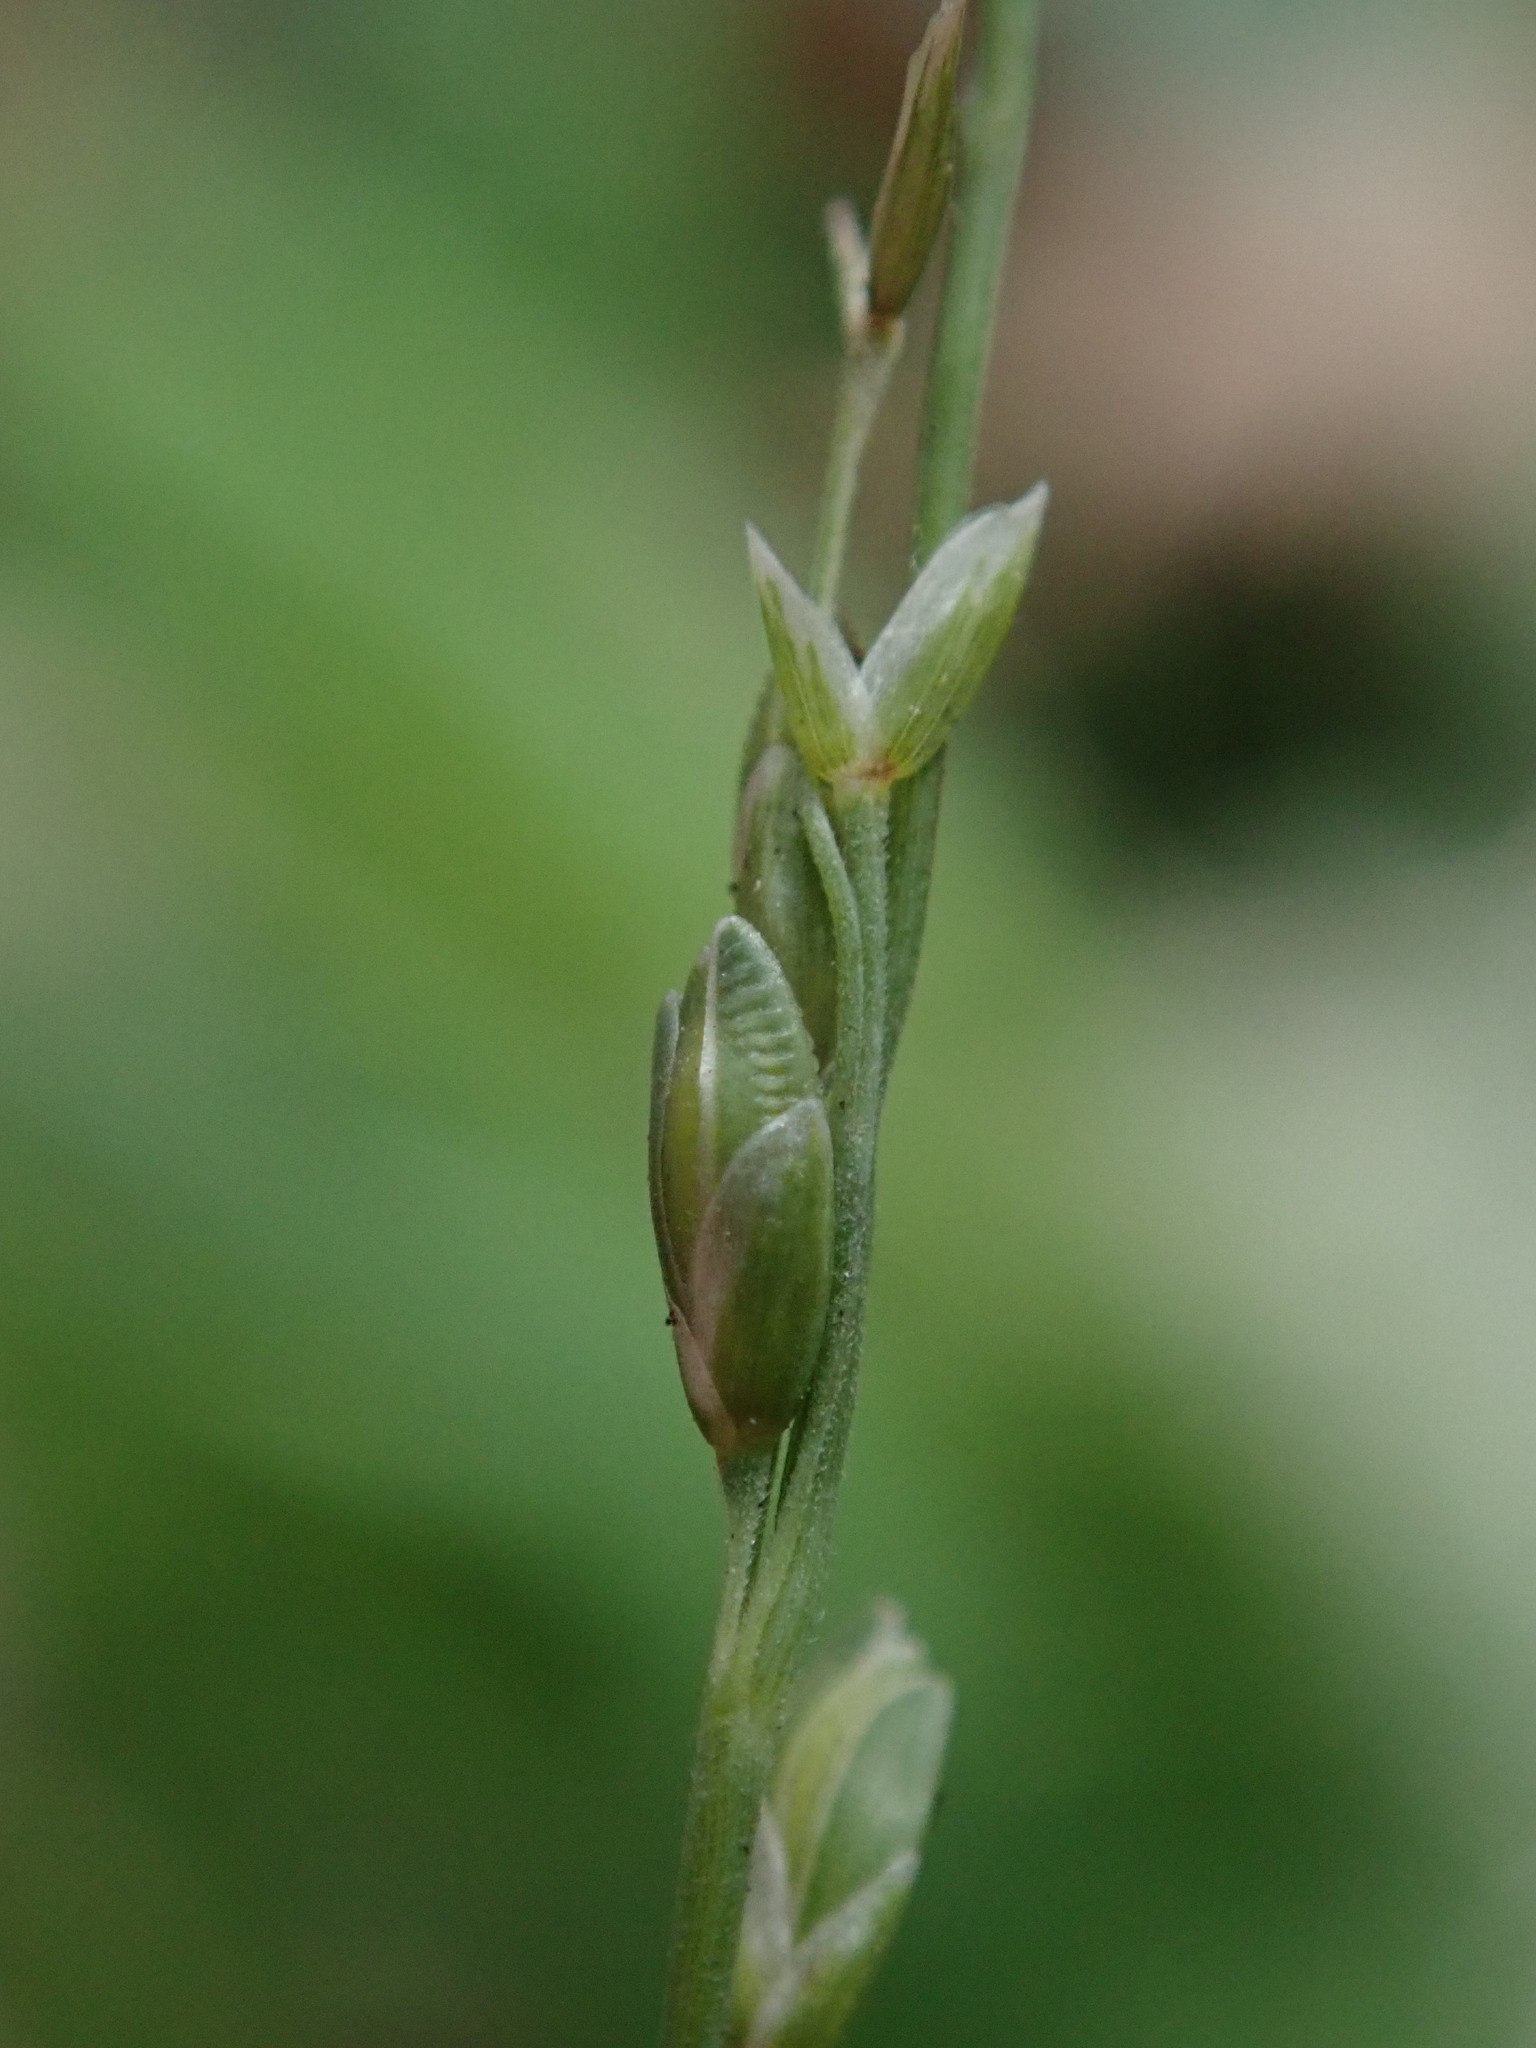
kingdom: Plantae
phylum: Tracheophyta
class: Liliopsida
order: Poales
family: Poaceae
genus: Ehrharta
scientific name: Ehrharta erecta
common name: Panic veldtgrass
